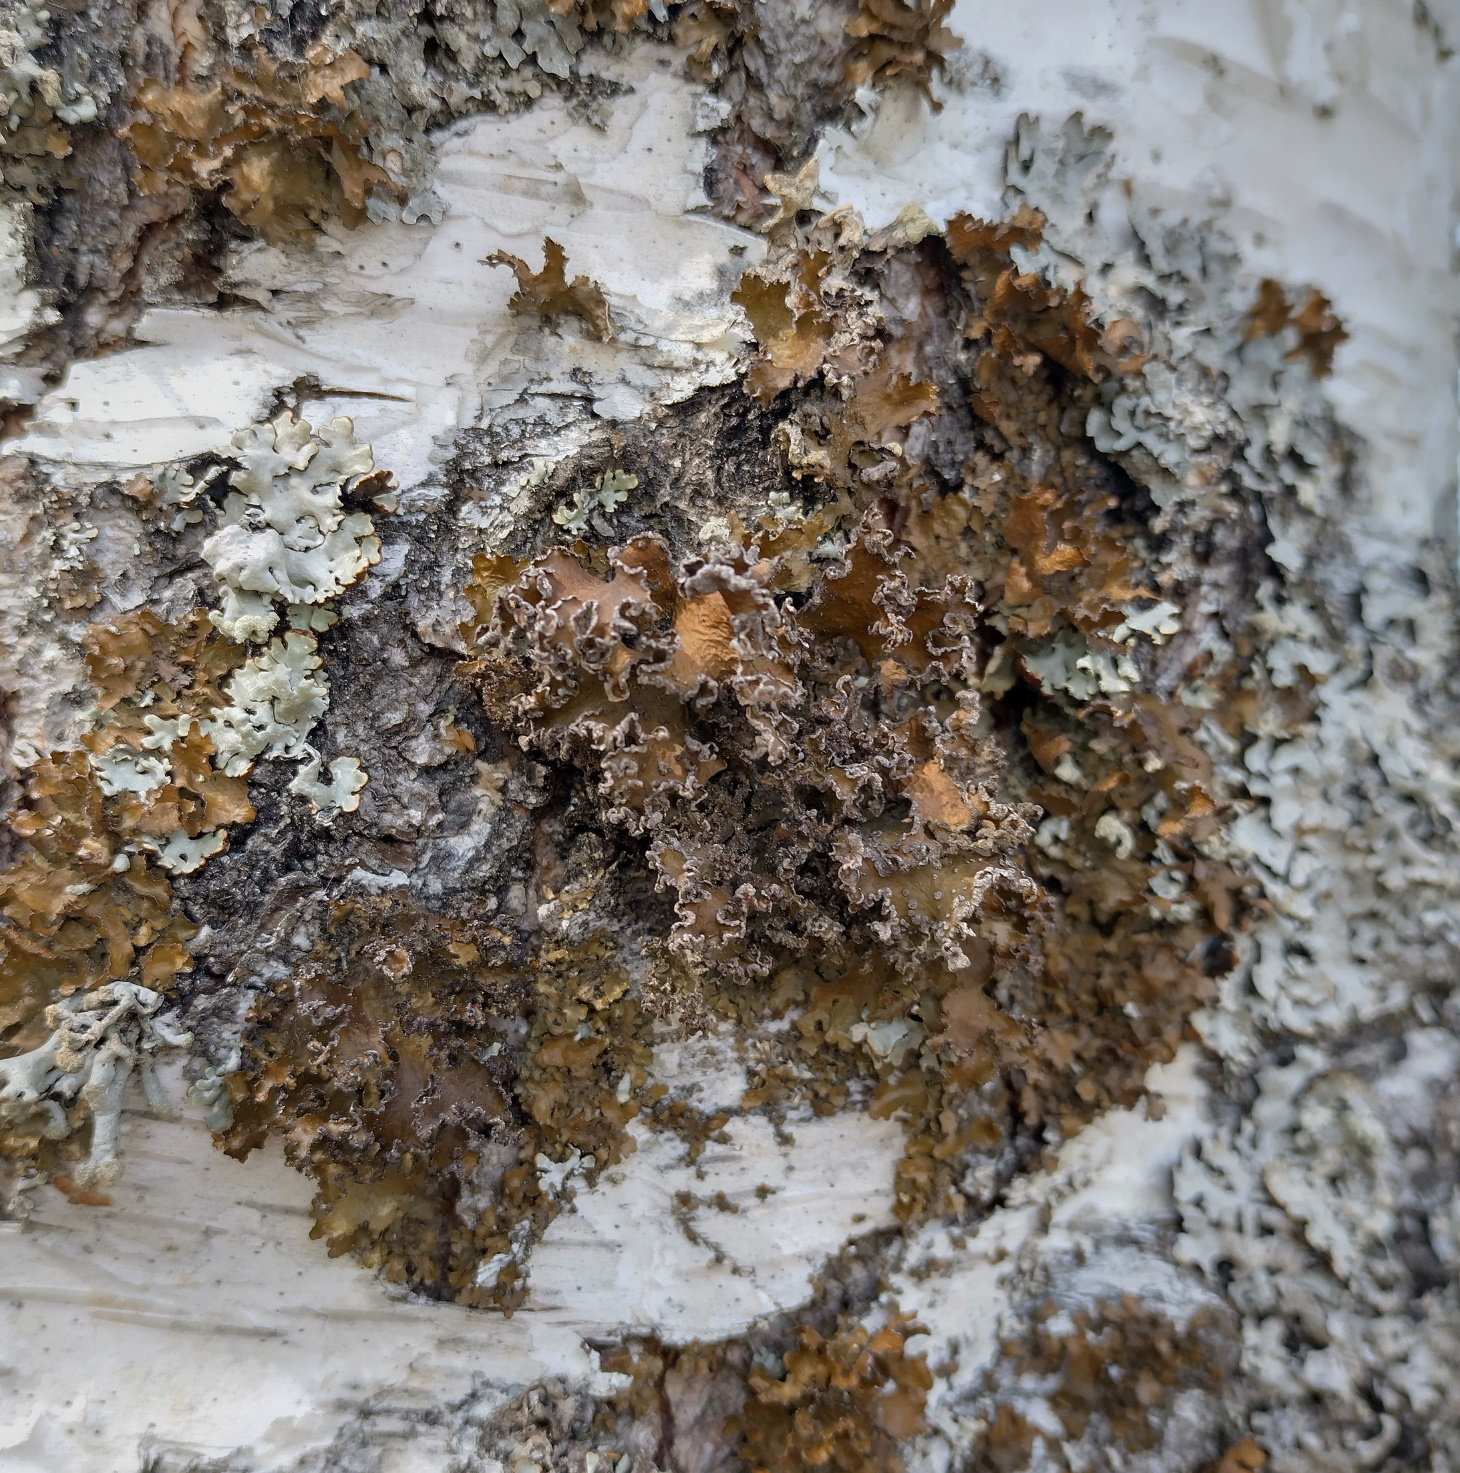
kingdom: Fungi
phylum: Ascomycota
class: Lecanoromycetes
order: Lecanorales
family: Parmeliaceae
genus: Nephromopsis
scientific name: Nephromopsis chlorophylla
